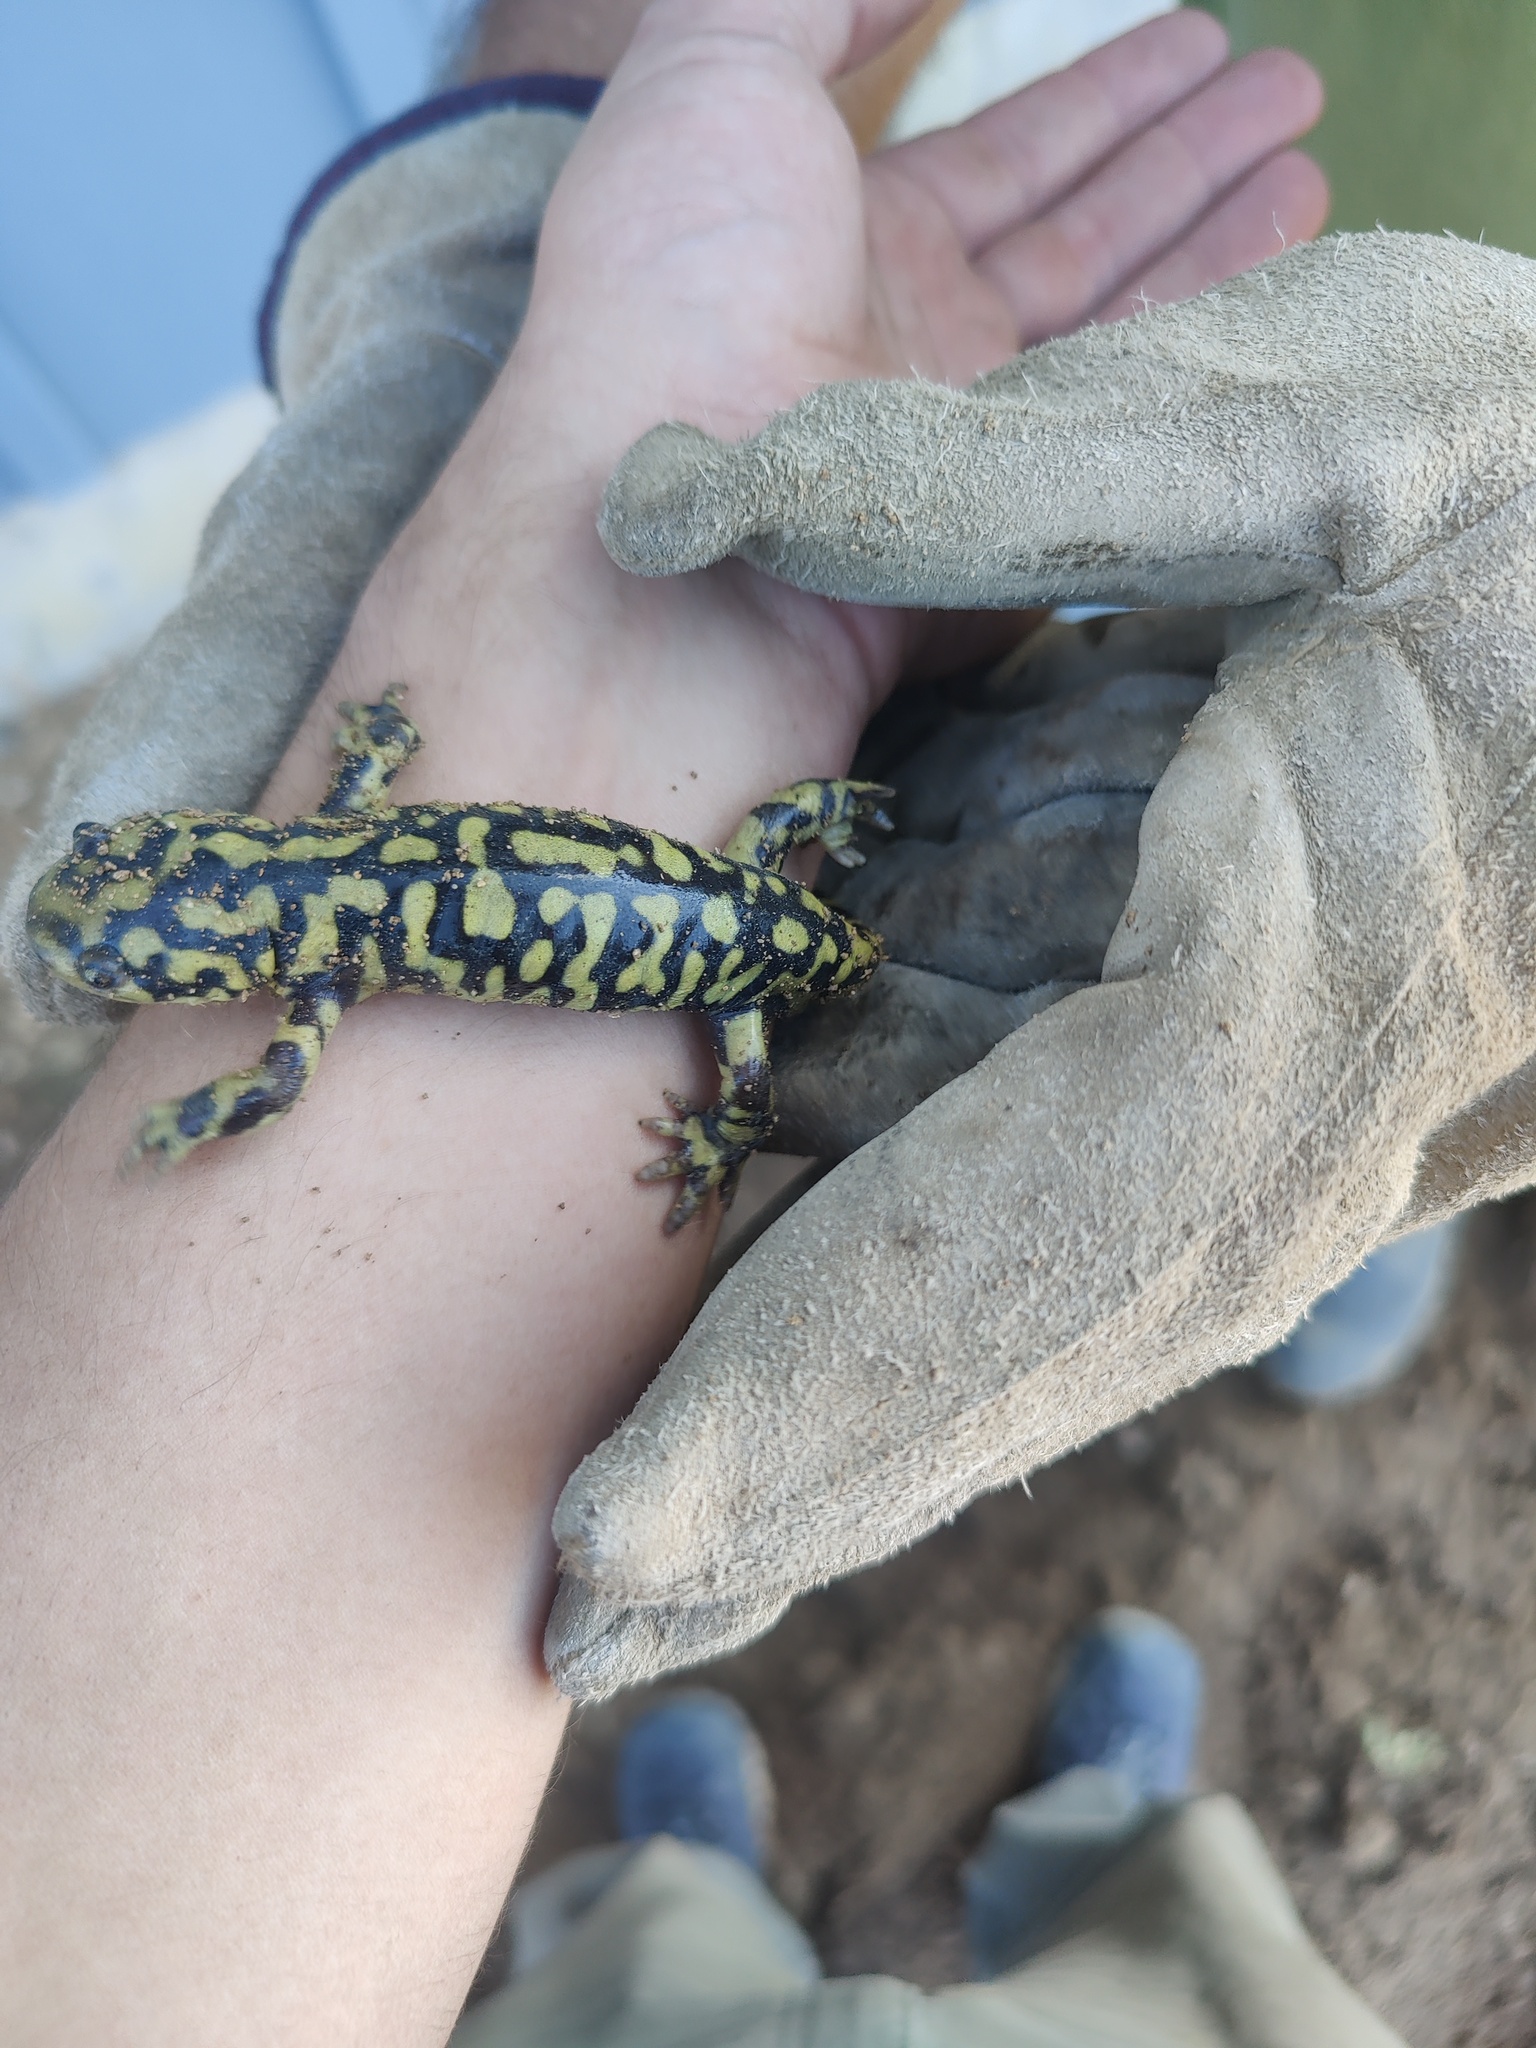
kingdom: Animalia
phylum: Chordata
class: Amphibia
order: Caudata
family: Ambystomatidae
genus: Ambystoma
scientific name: Ambystoma mavortium
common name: Western tiger salamander
